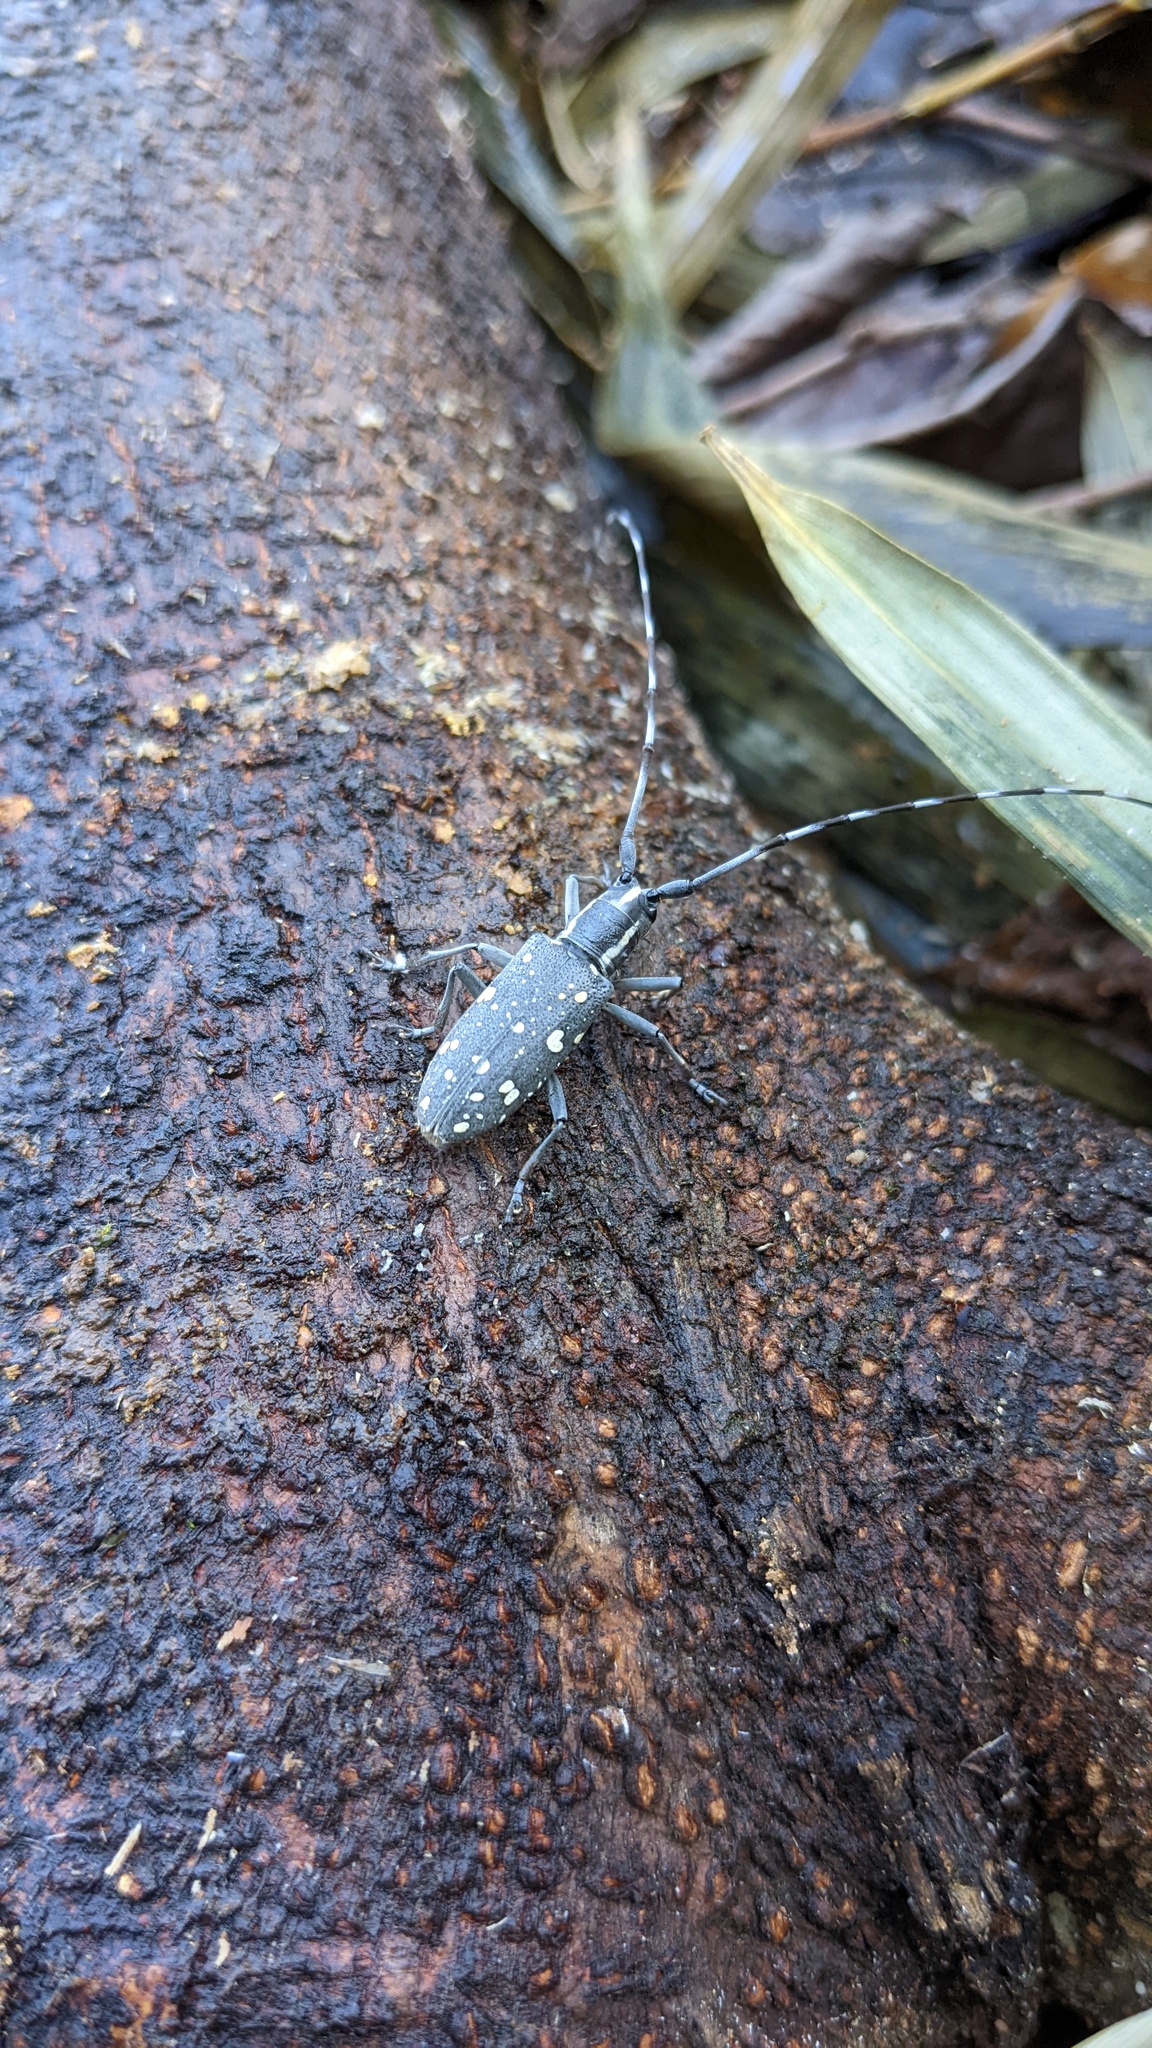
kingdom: Animalia
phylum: Arthropoda
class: Insecta
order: Coleoptera
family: Cerambycidae
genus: Psacothea
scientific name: Psacothea hilaris
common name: Yellow-spotted longicorn beetle
